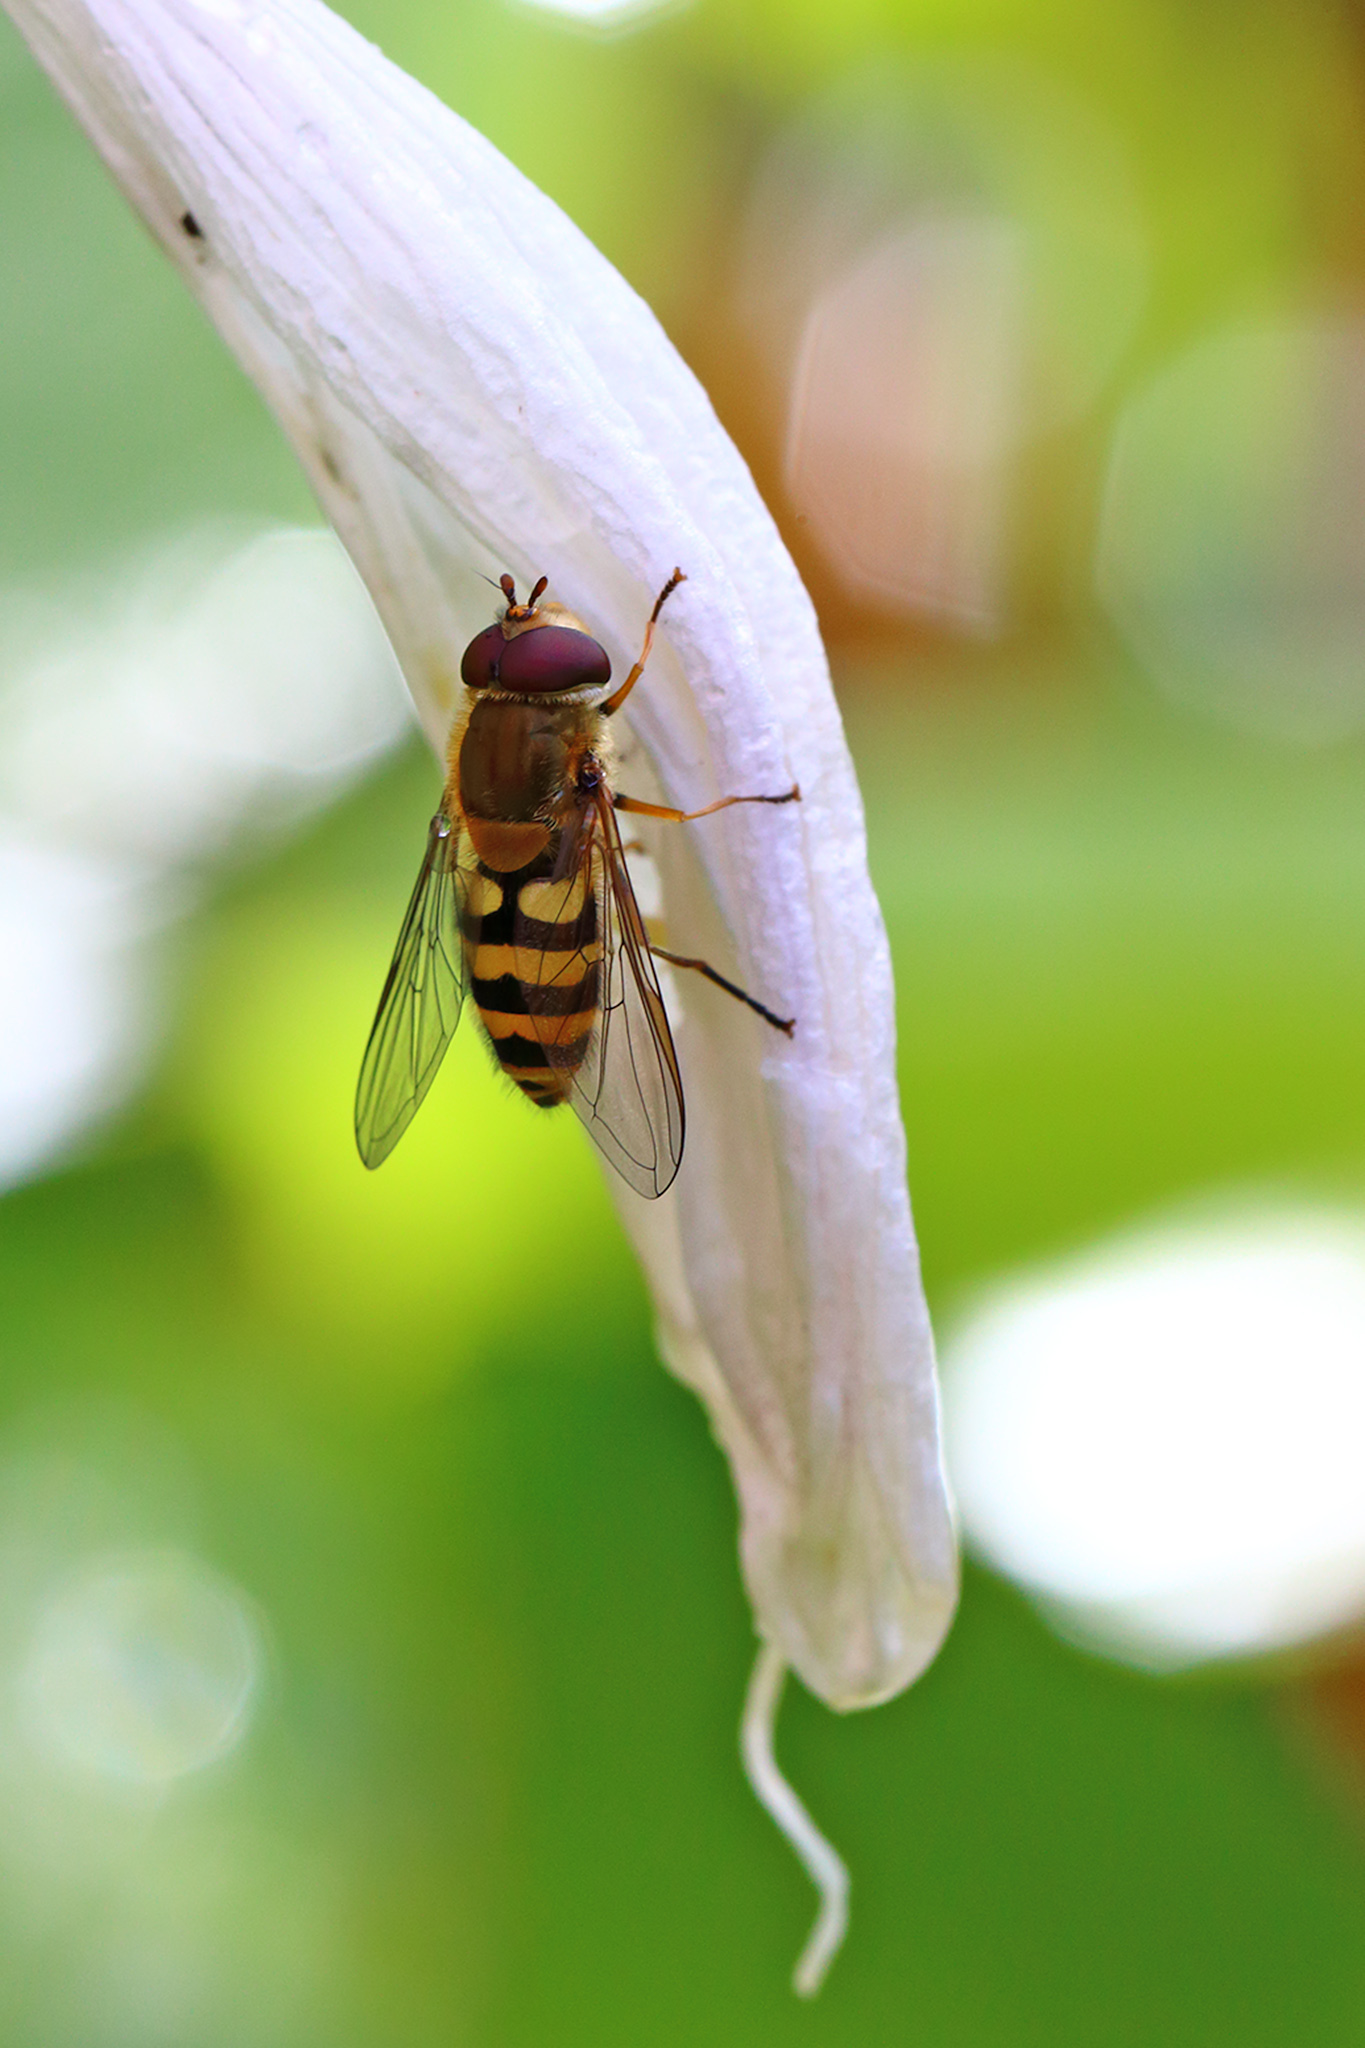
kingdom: Animalia
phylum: Arthropoda
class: Insecta
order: Diptera
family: Syrphidae
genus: Syrphus
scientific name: Syrphus
